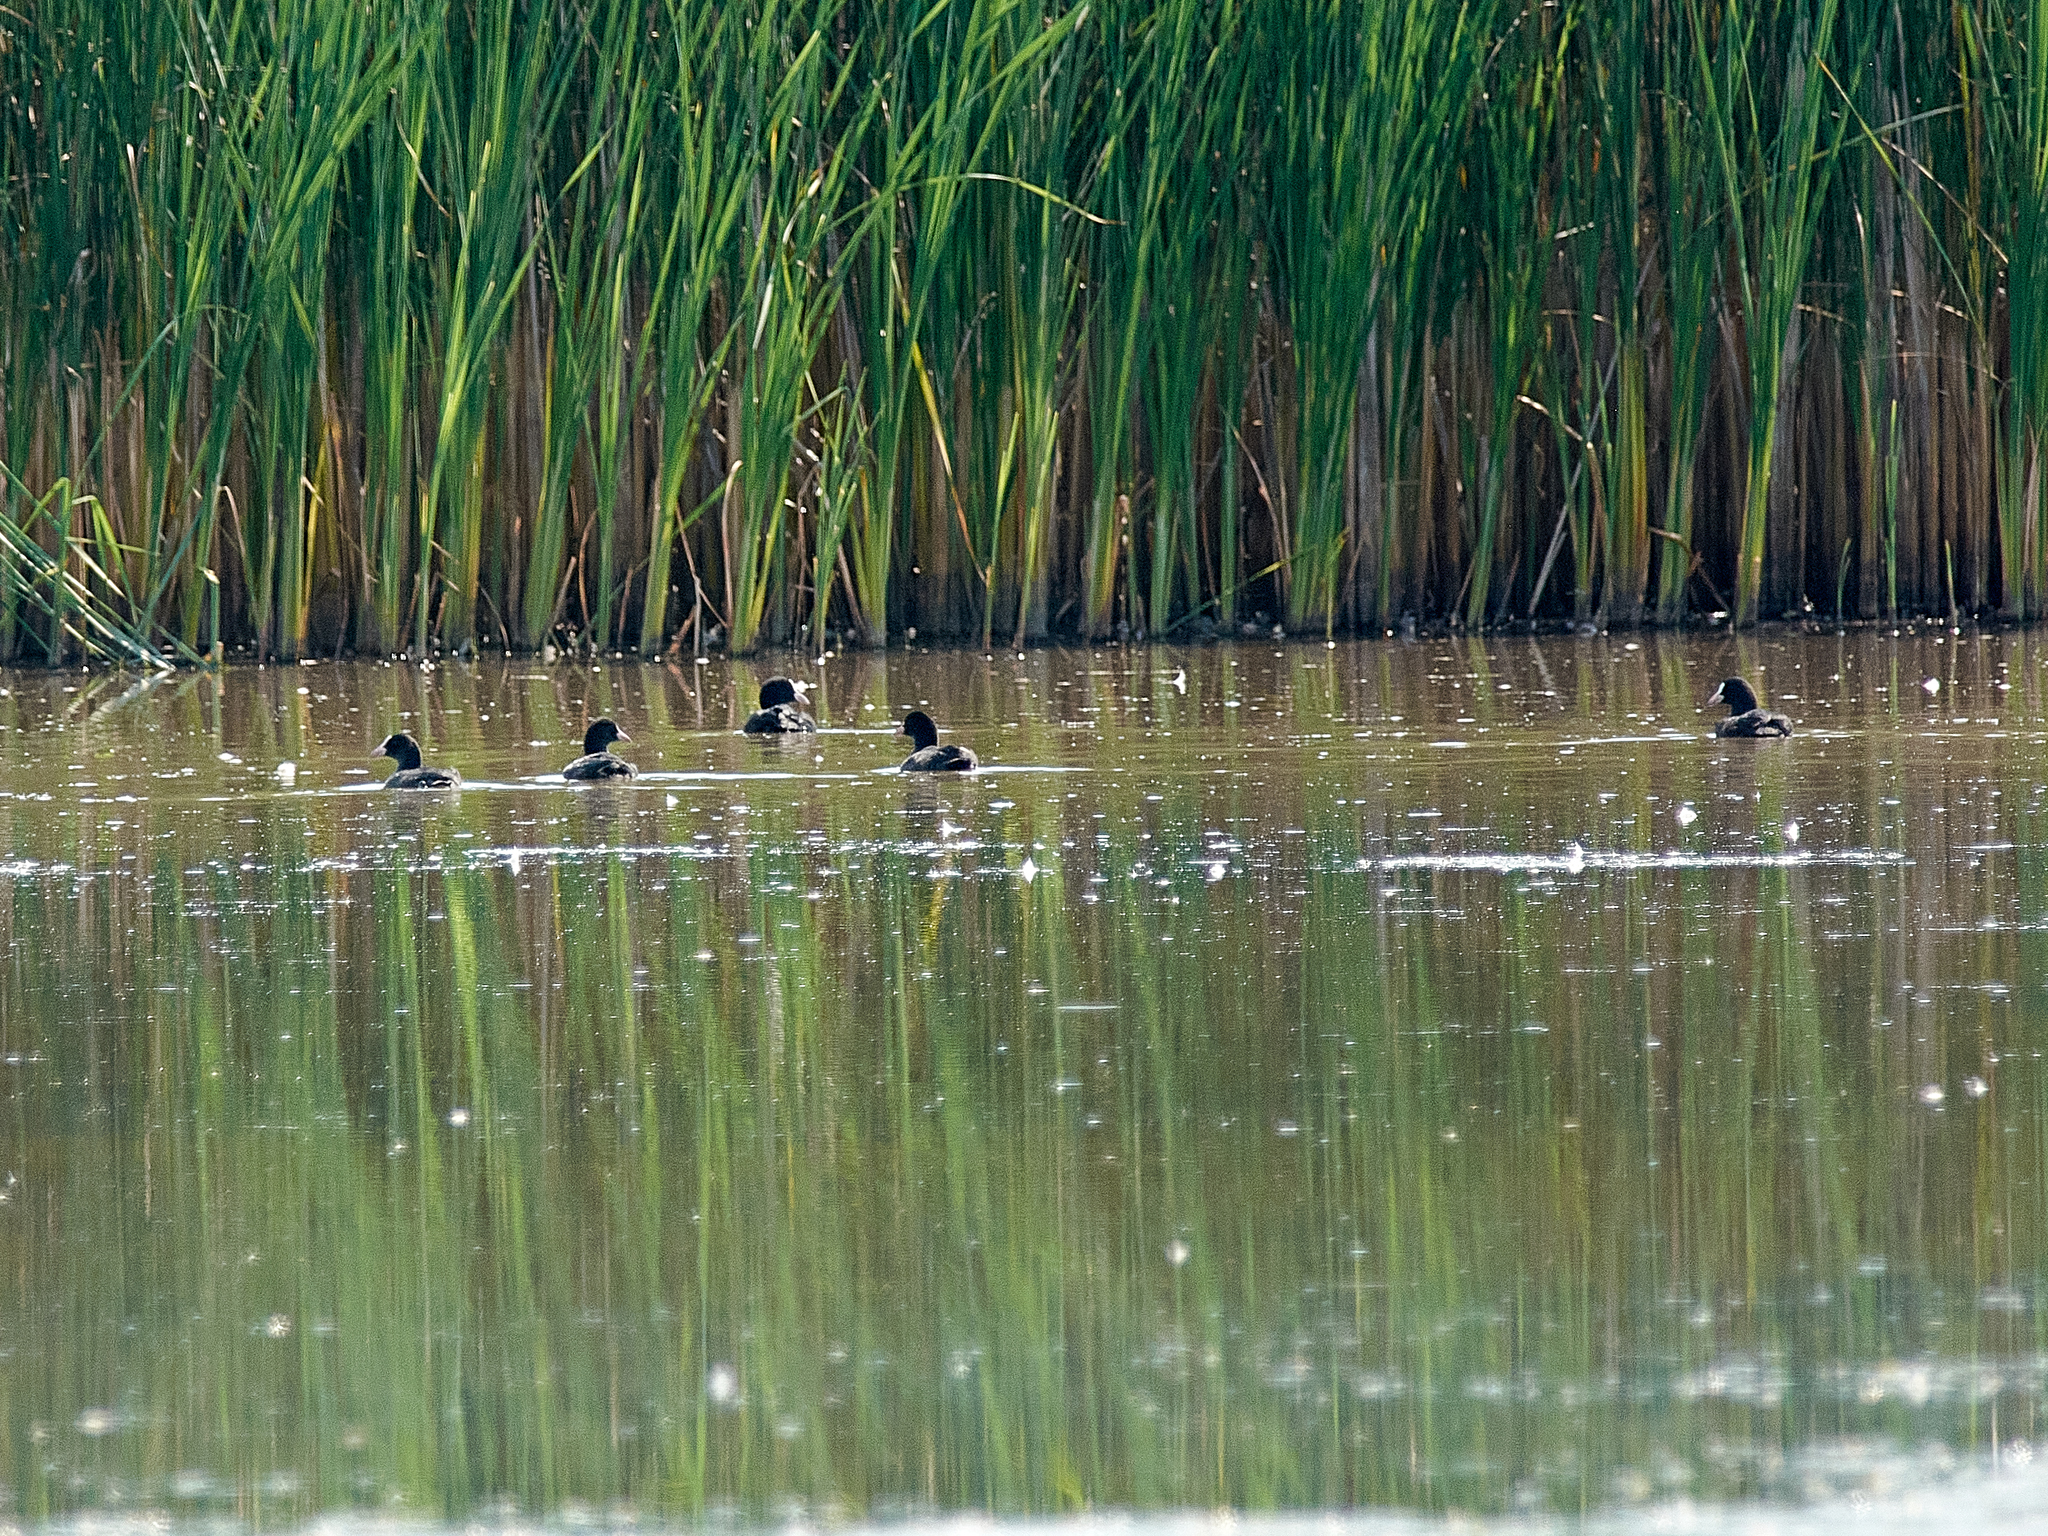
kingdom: Animalia
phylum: Chordata
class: Aves
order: Gruiformes
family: Rallidae
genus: Fulica
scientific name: Fulica atra
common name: Eurasian coot
